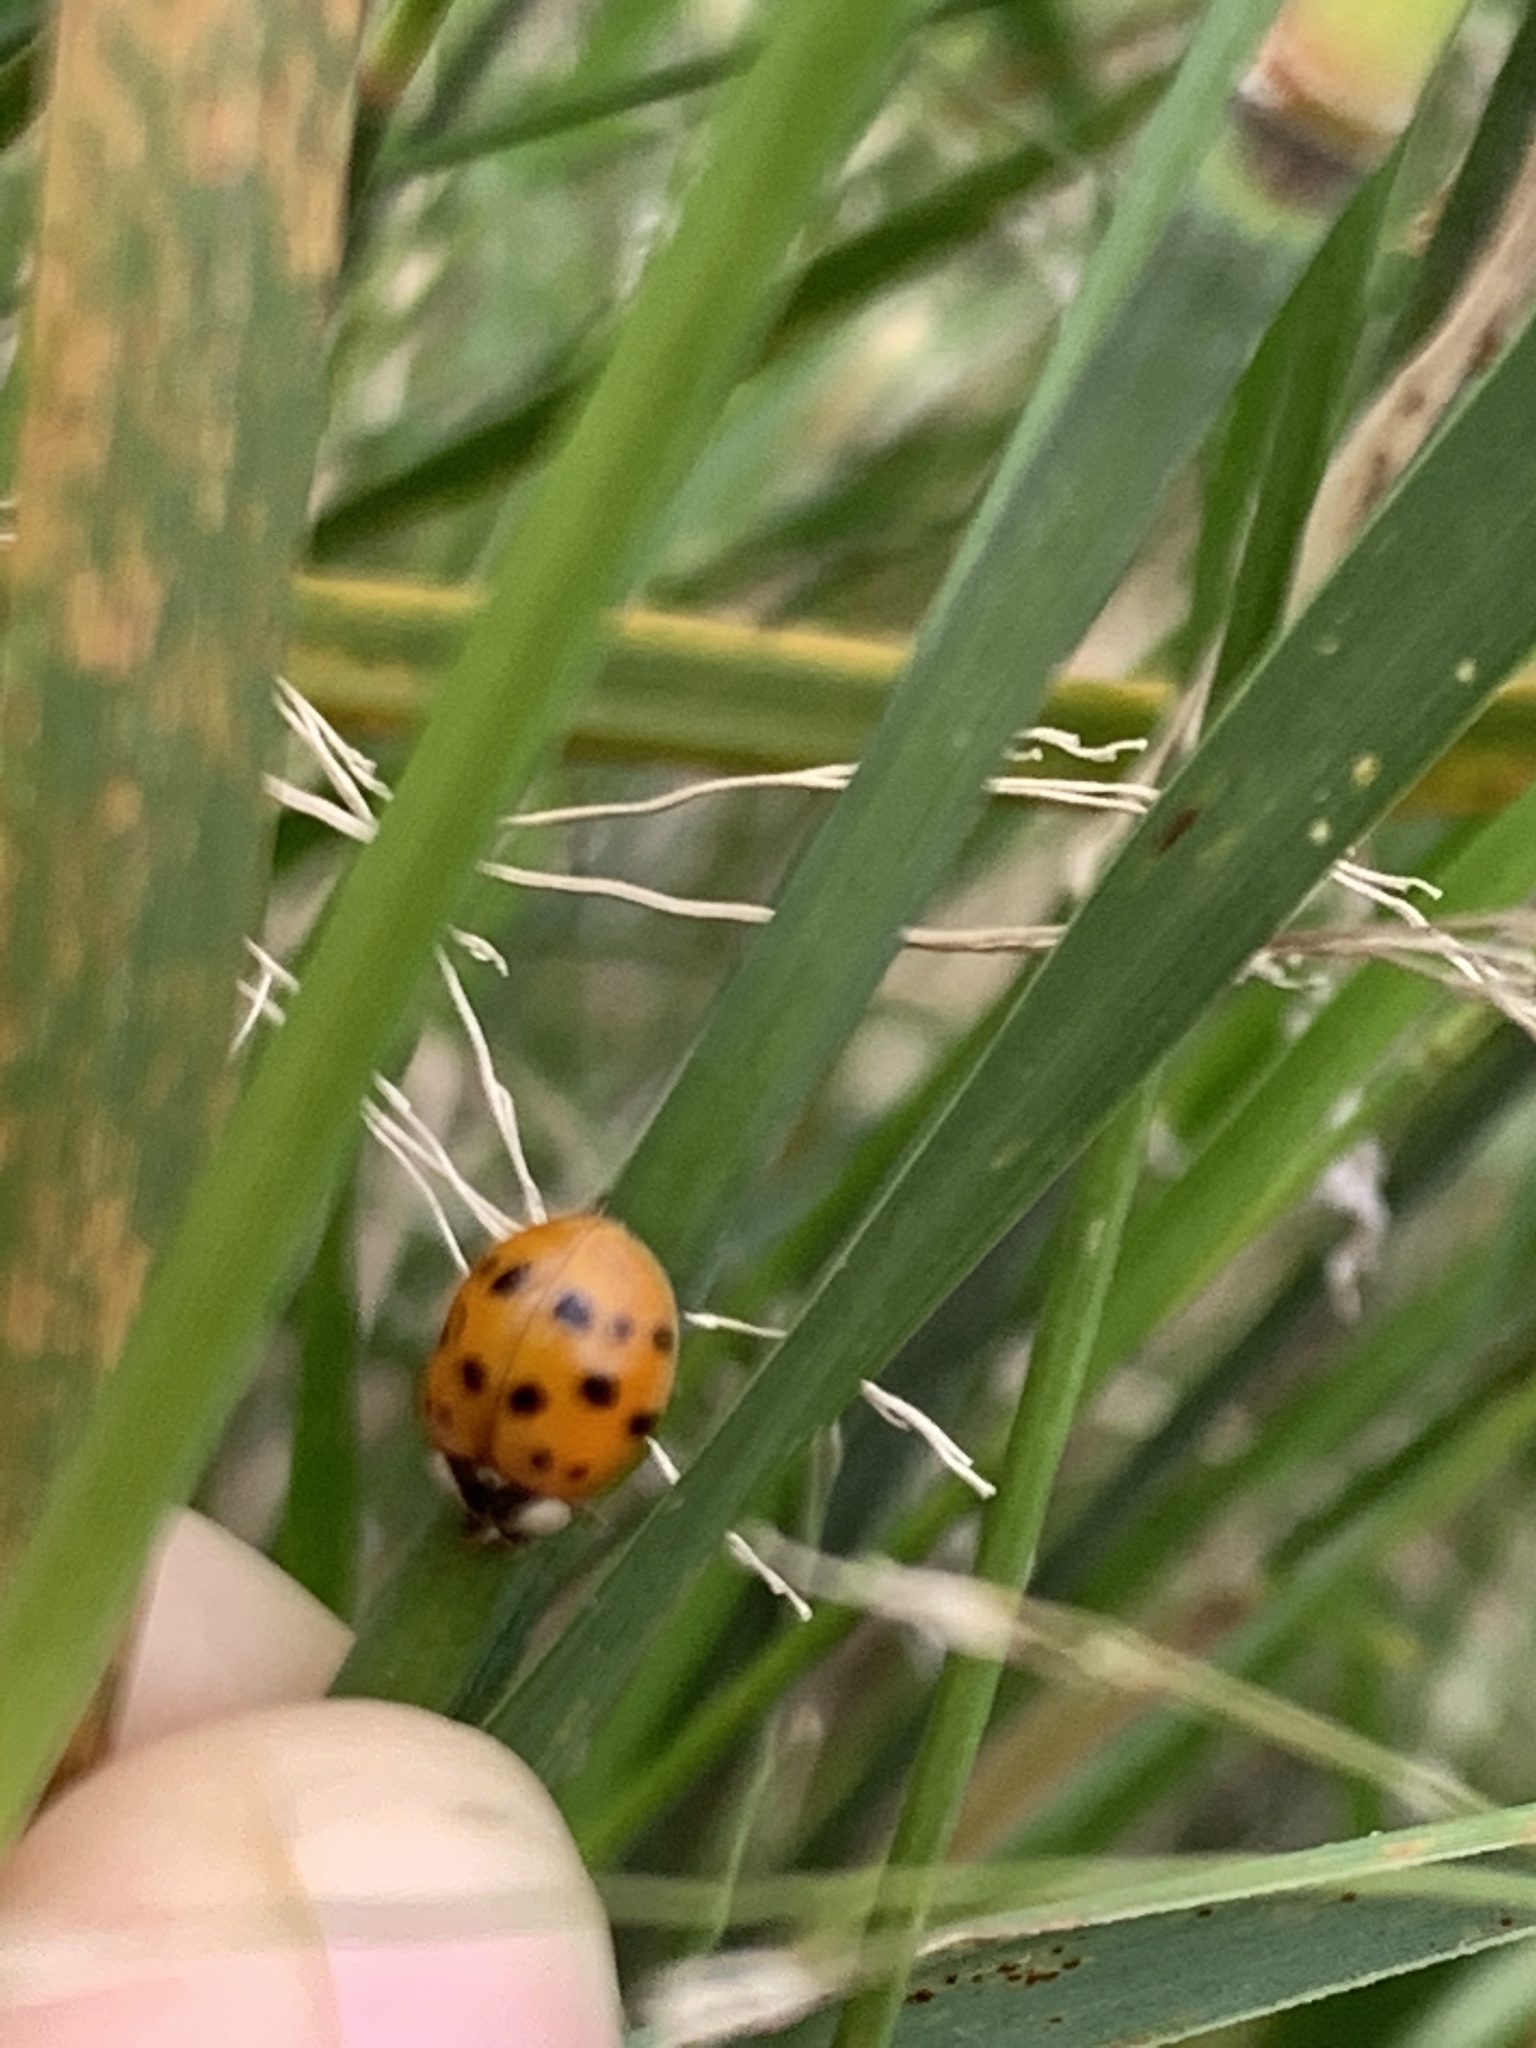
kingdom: Animalia
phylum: Arthropoda
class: Insecta
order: Coleoptera
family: Coccinellidae
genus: Harmonia
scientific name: Harmonia axyridis
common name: Harlequin ladybird
